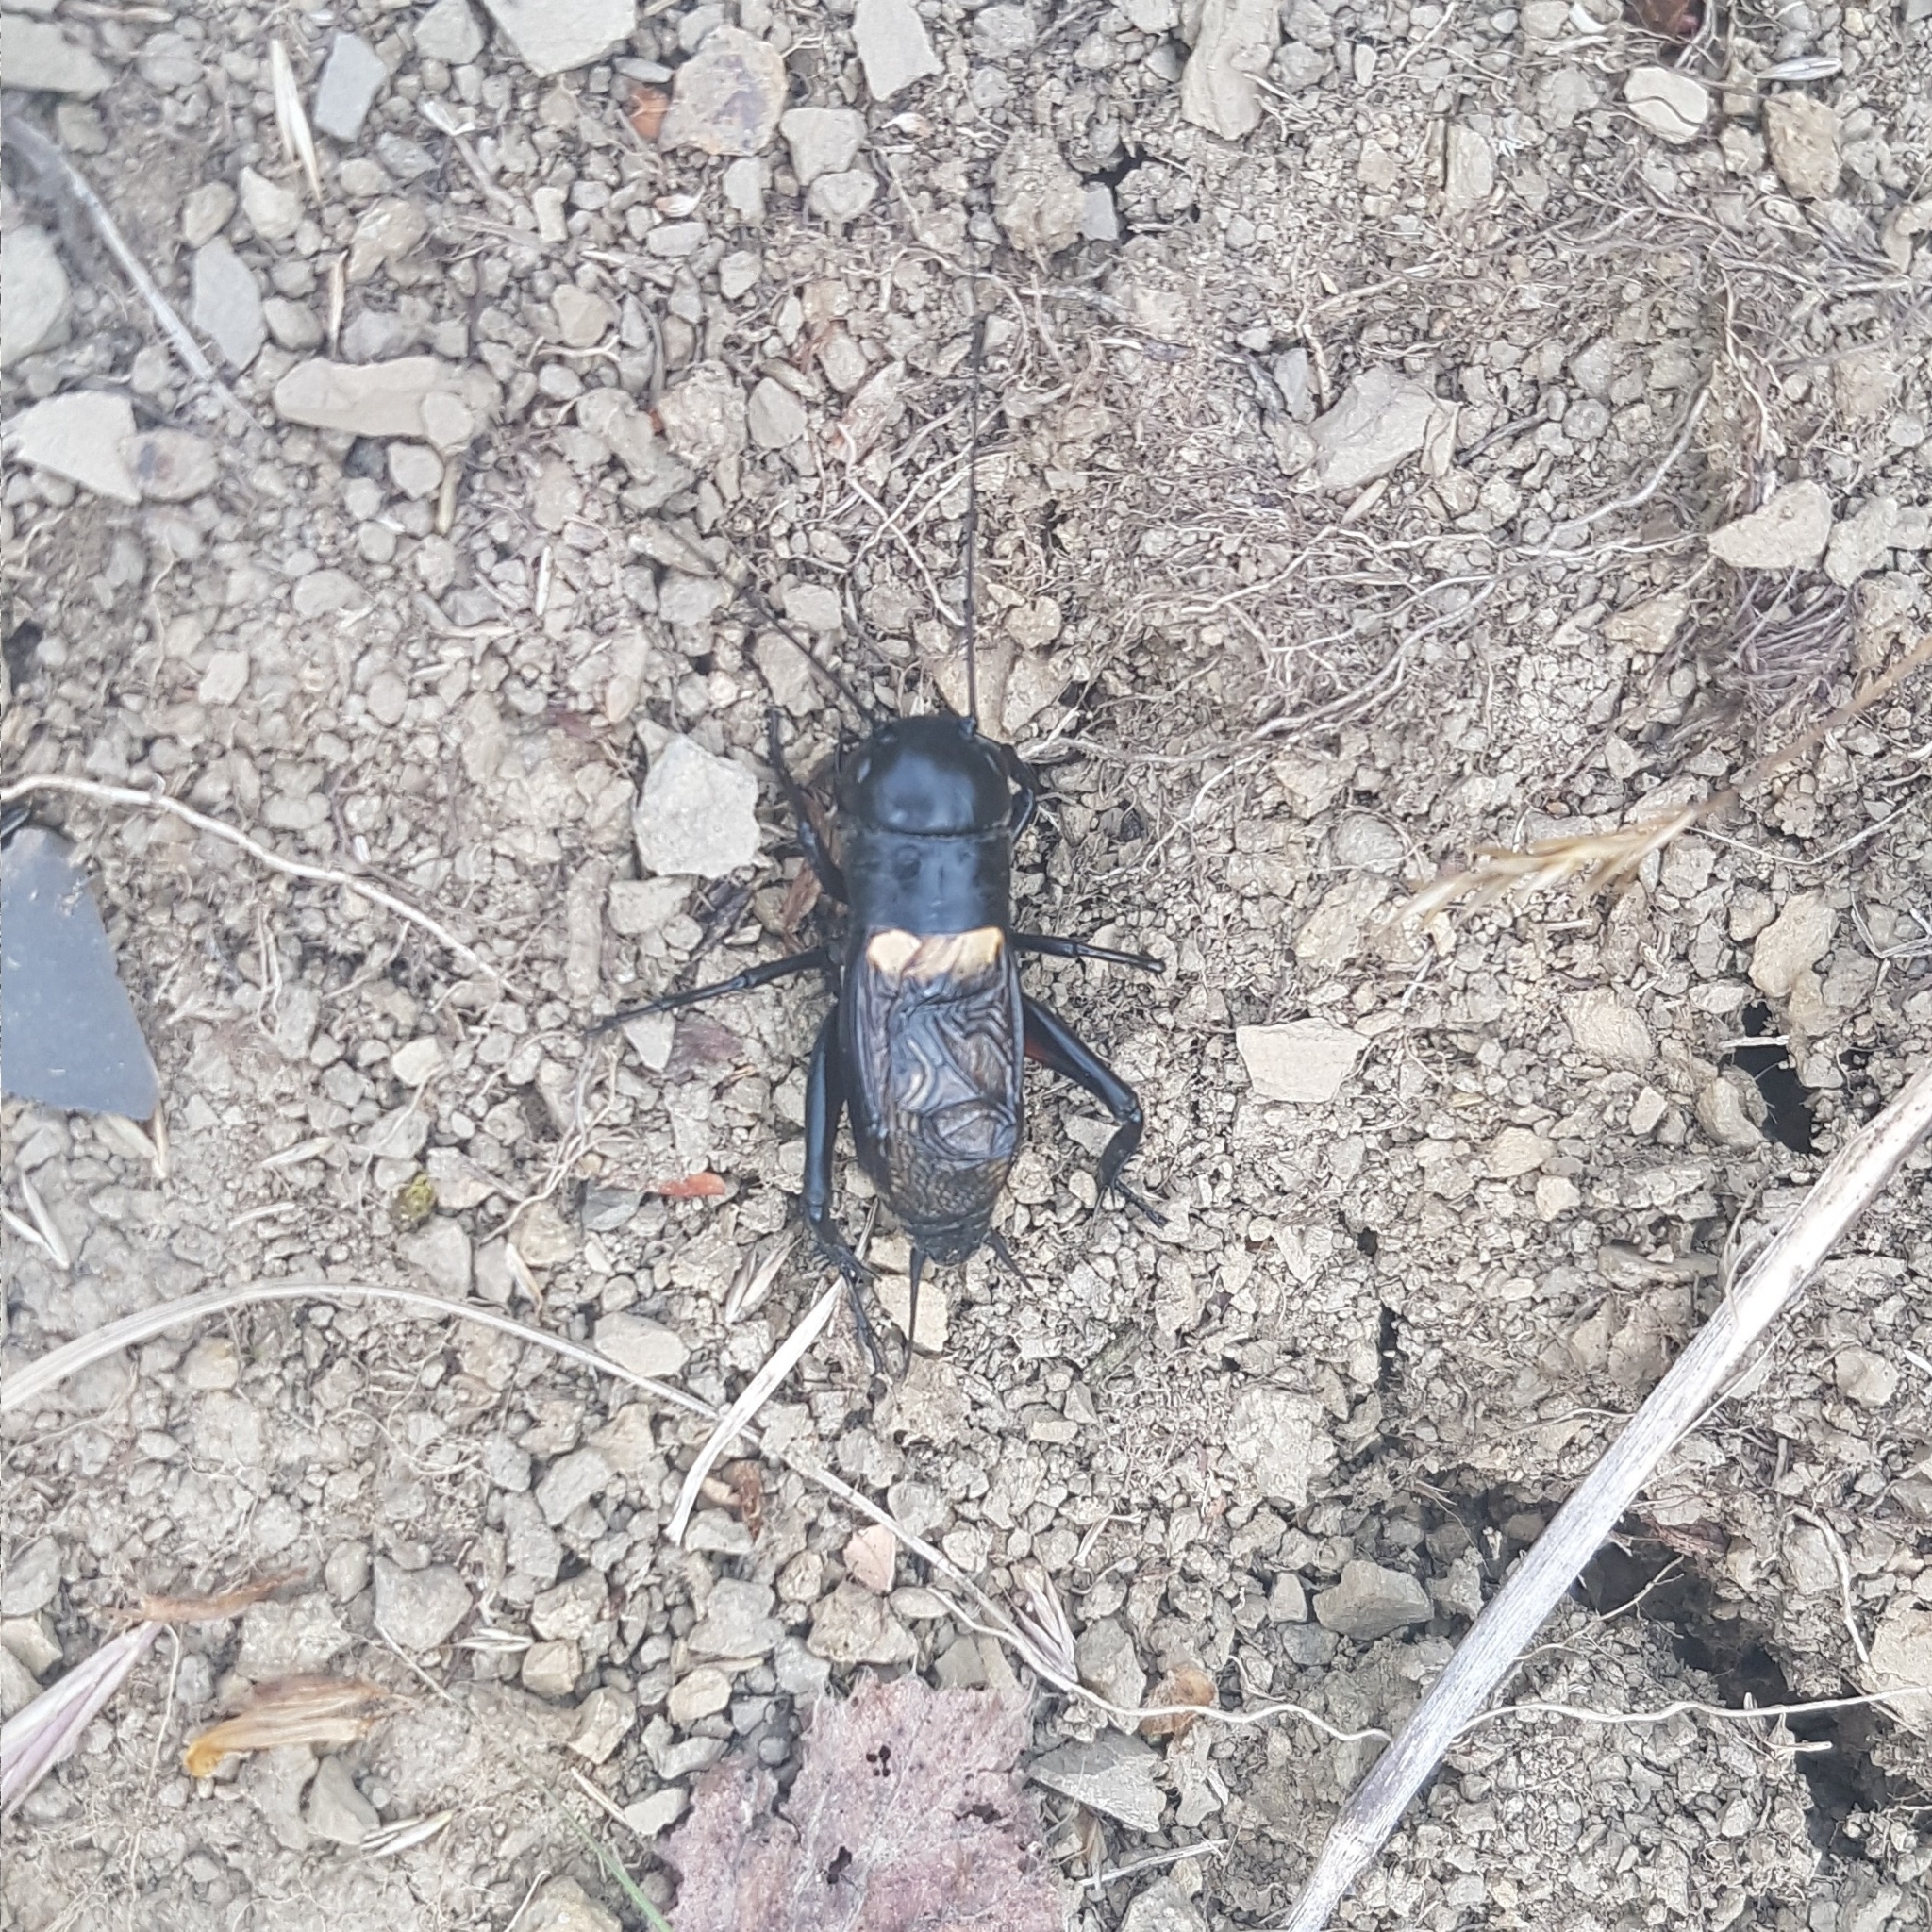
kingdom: Animalia
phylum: Arthropoda
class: Insecta
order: Orthoptera
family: Gryllidae
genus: Gryllus
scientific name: Gryllus campestris
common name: Field cricket
